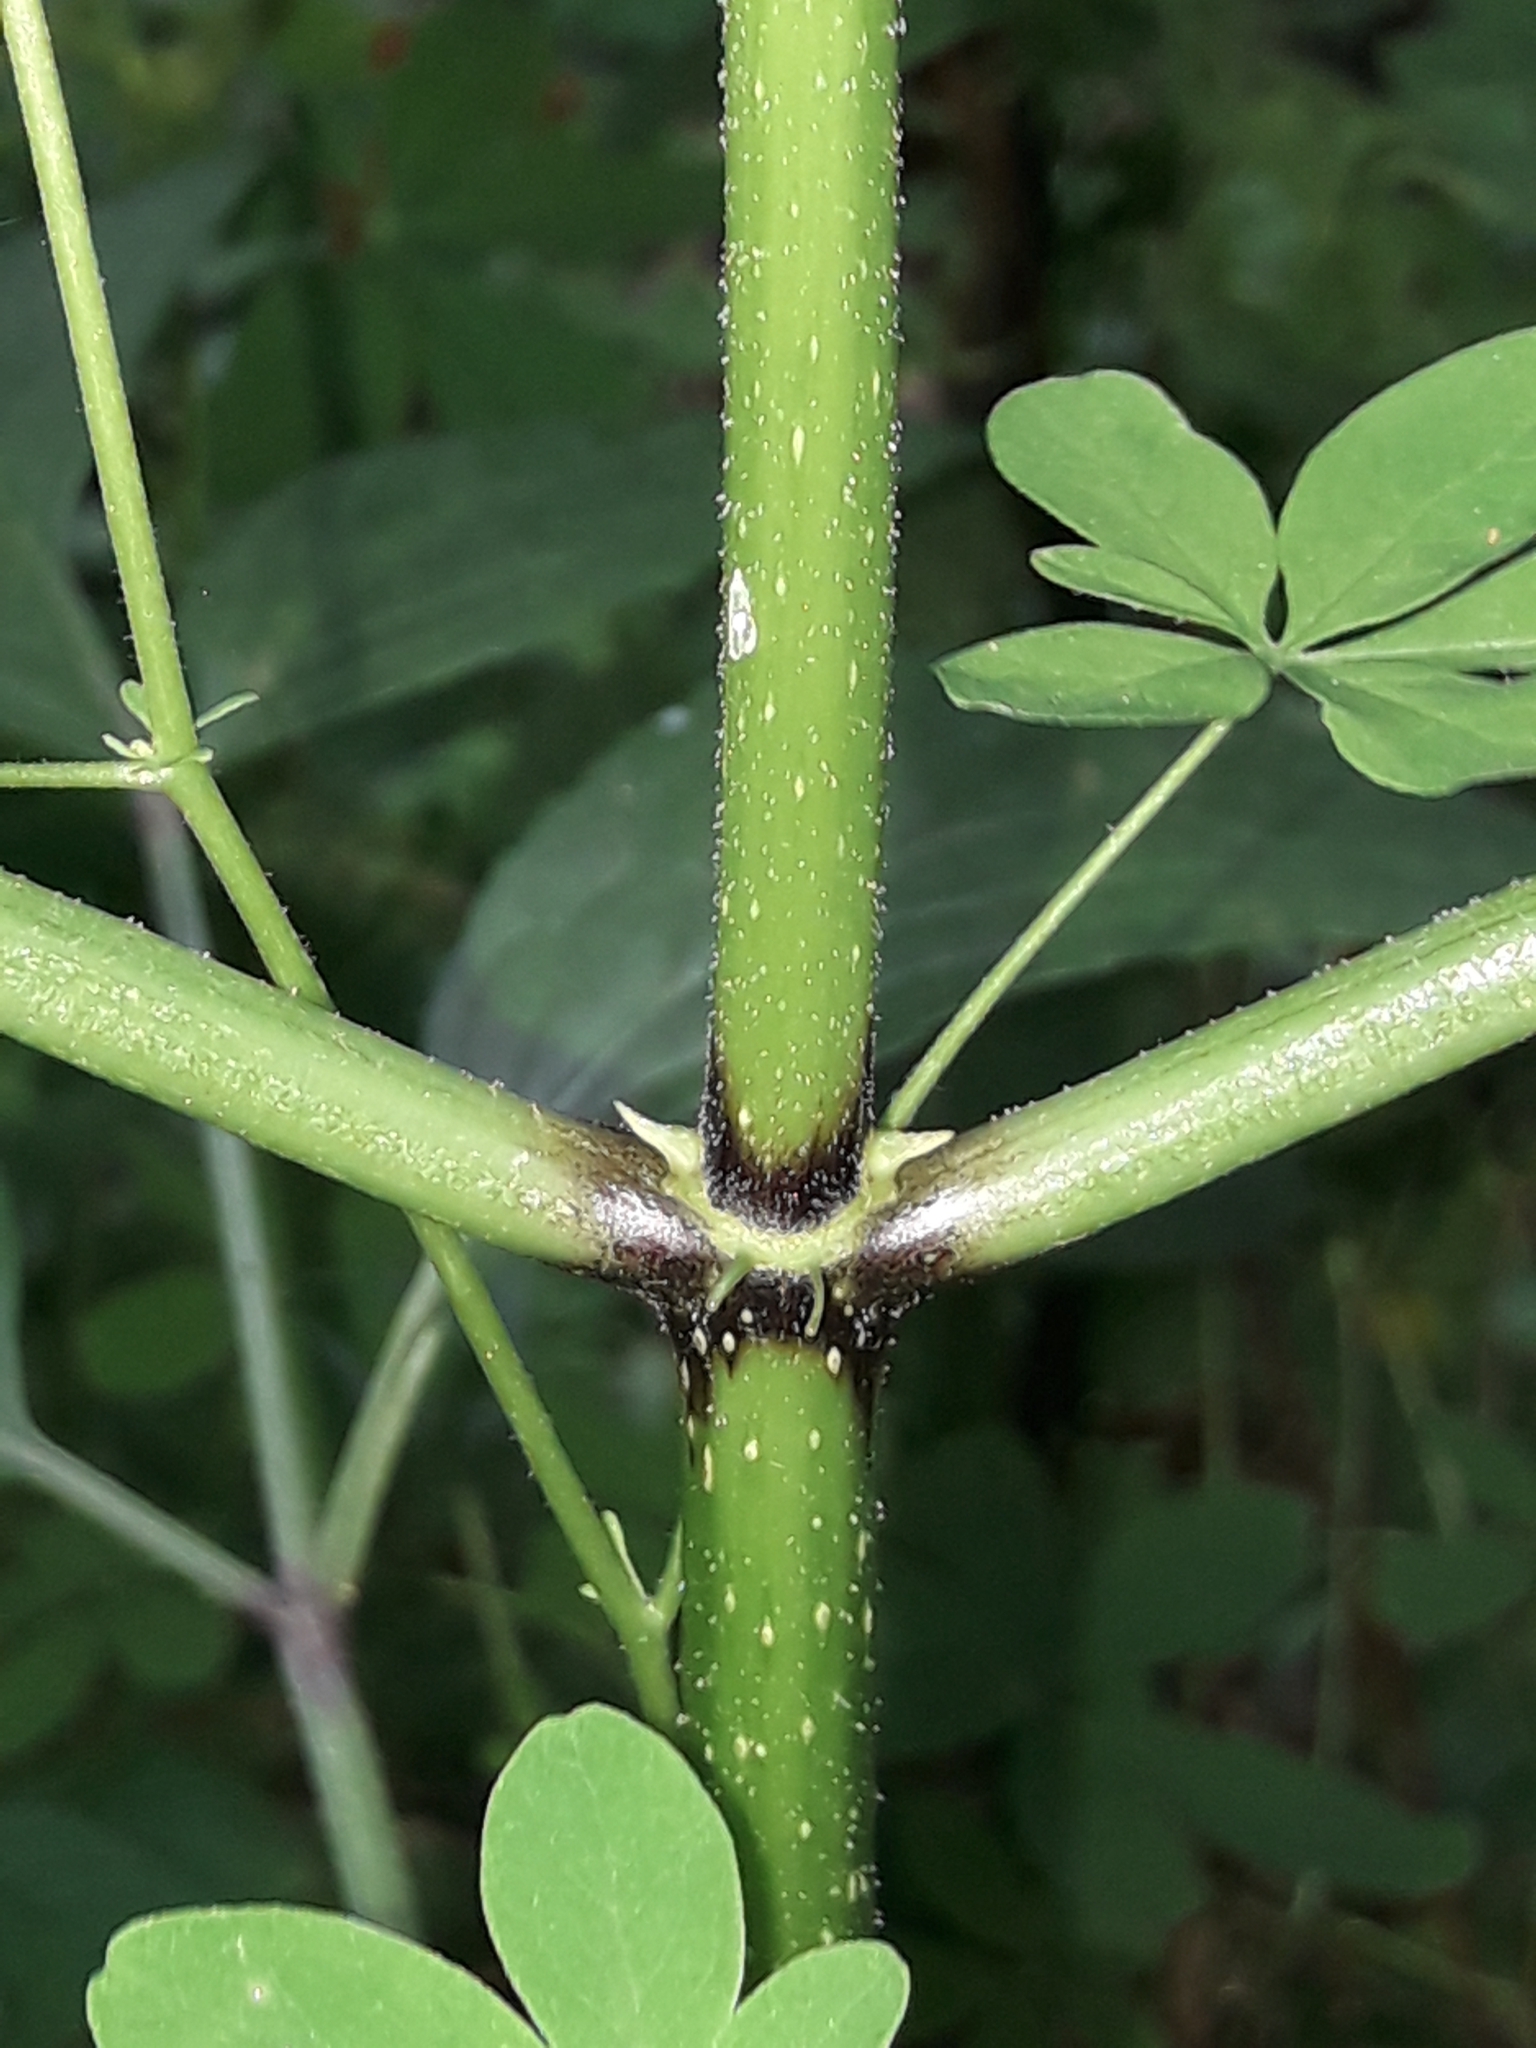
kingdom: Plantae
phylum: Tracheophyta
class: Magnoliopsida
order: Dipsacales
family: Viburnaceae
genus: Sambucus
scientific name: Sambucus nigra
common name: Elder
